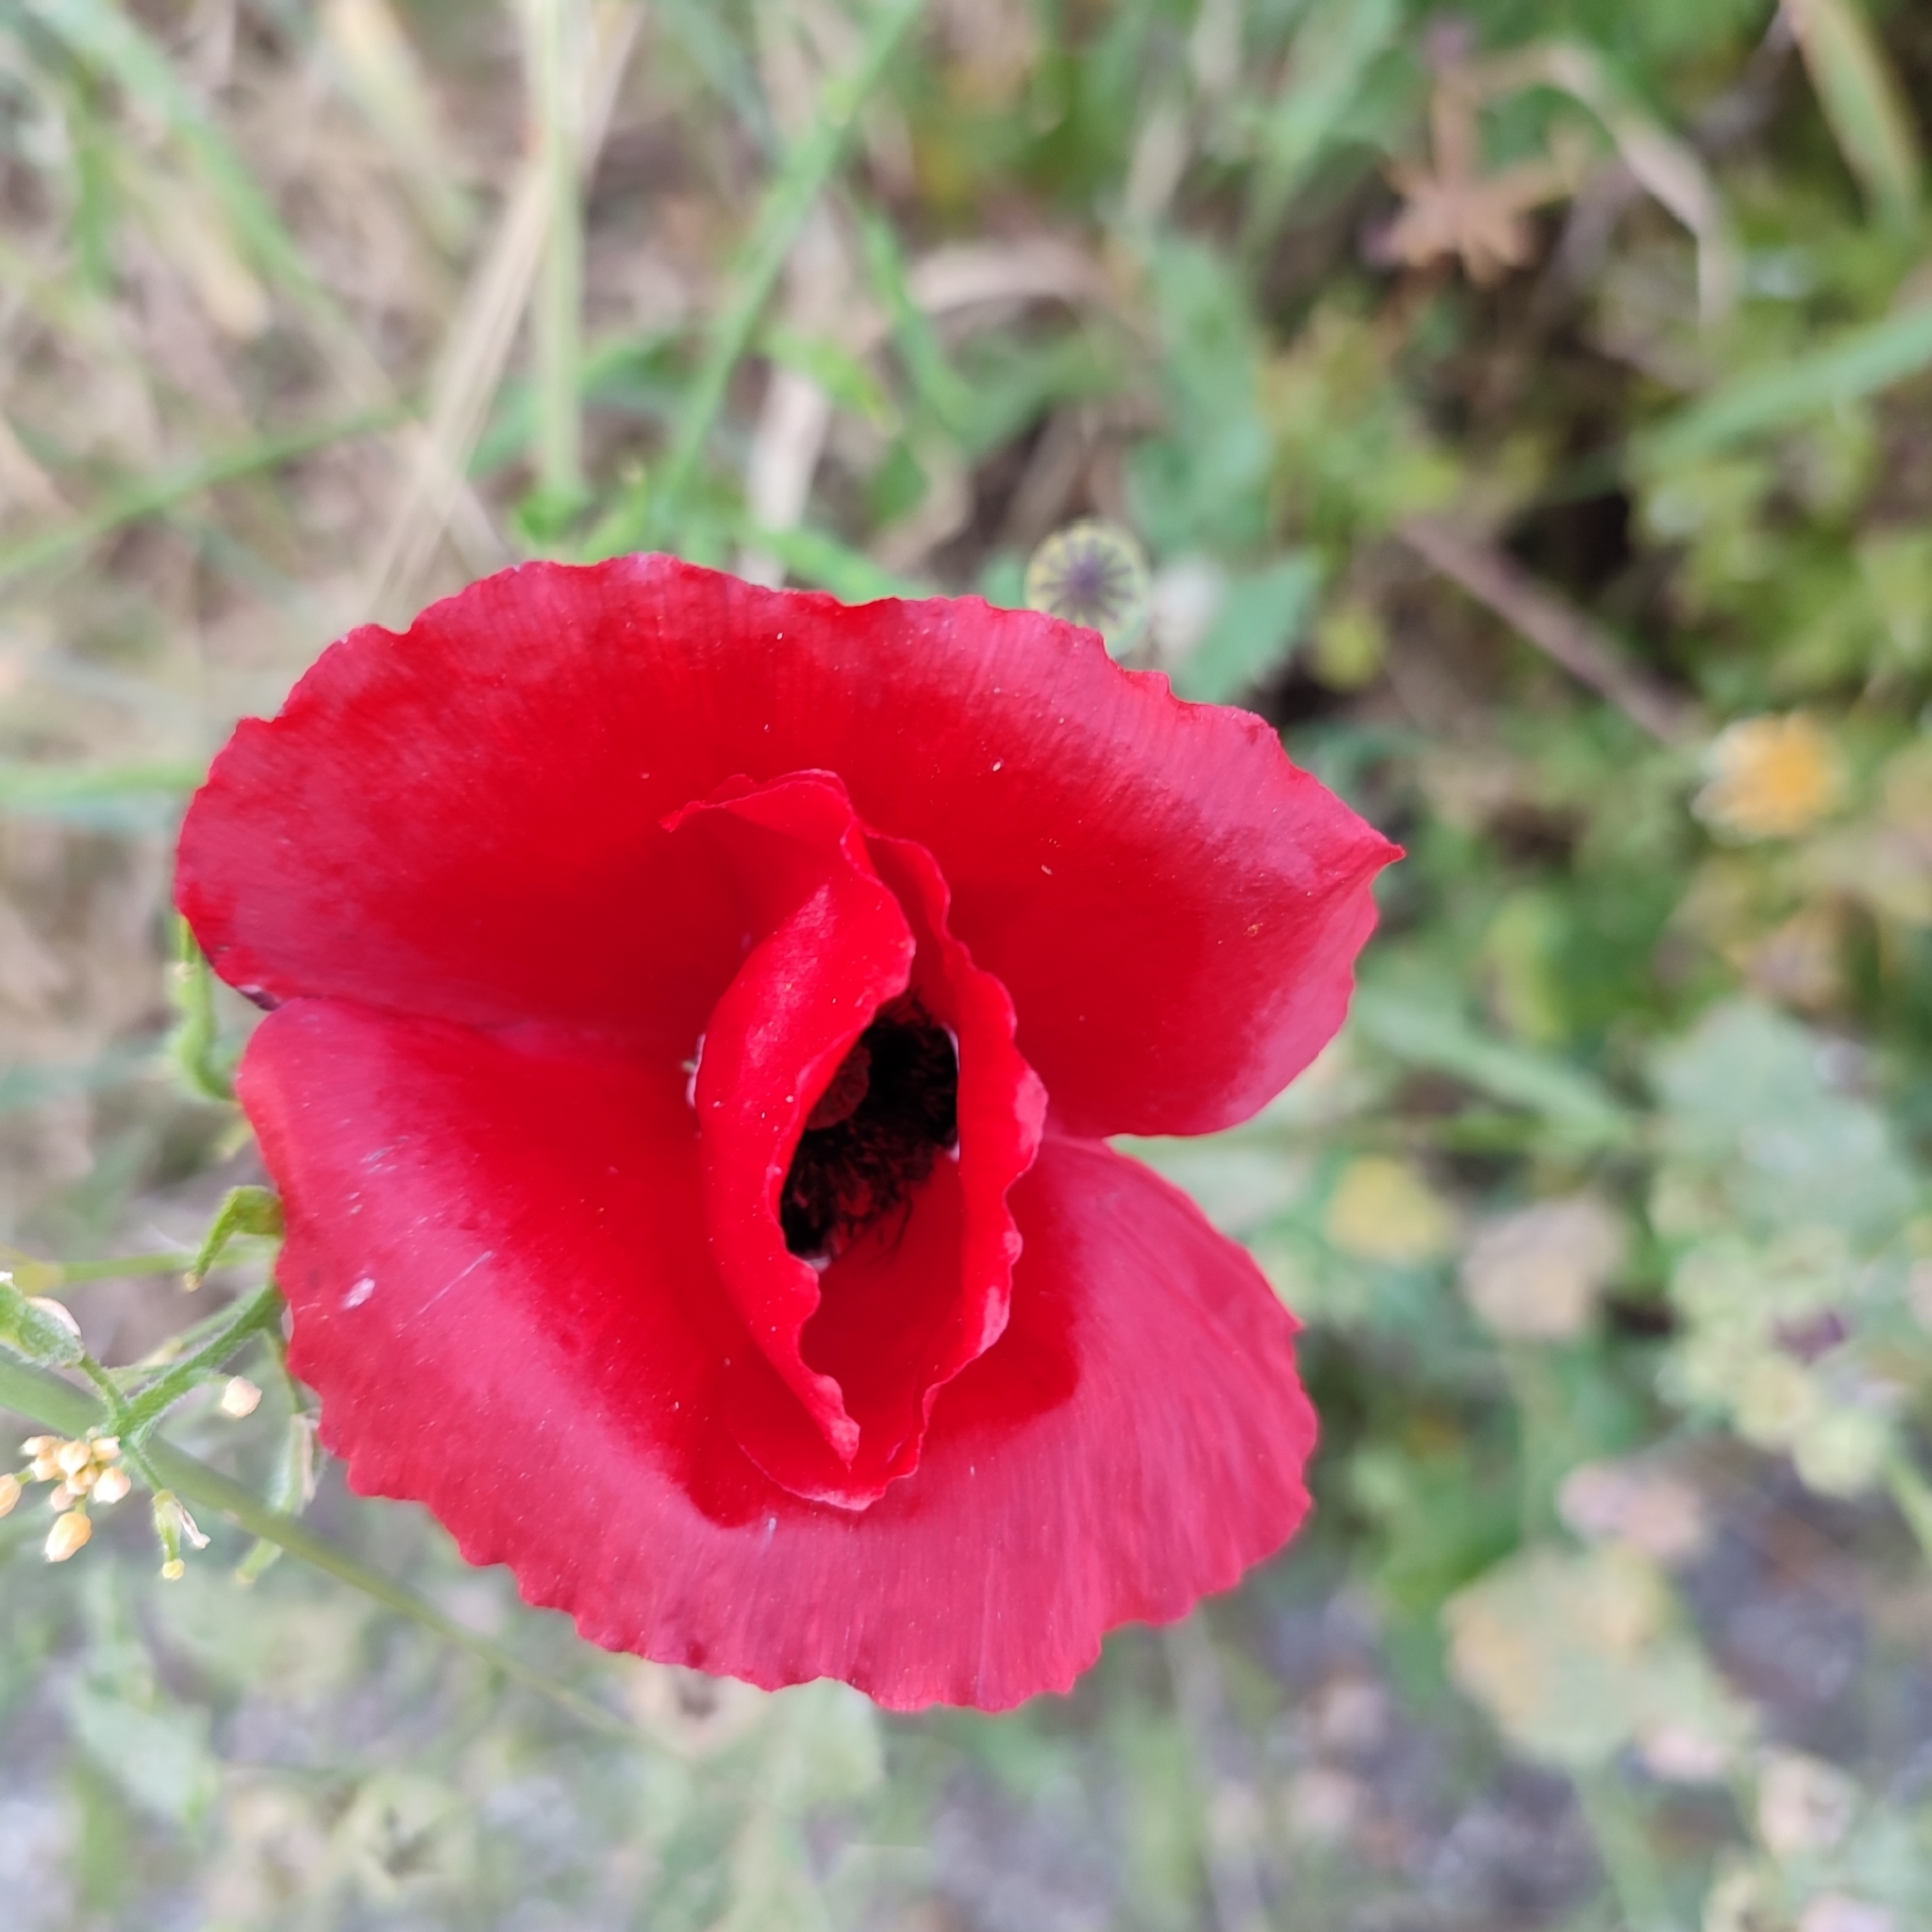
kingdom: Plantae
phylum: Tracheophyta
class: Magnoliopsida
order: Ranunculales
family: Papaveraceae
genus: Papaver
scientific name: Papaver rhoeas
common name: Corn poppy
